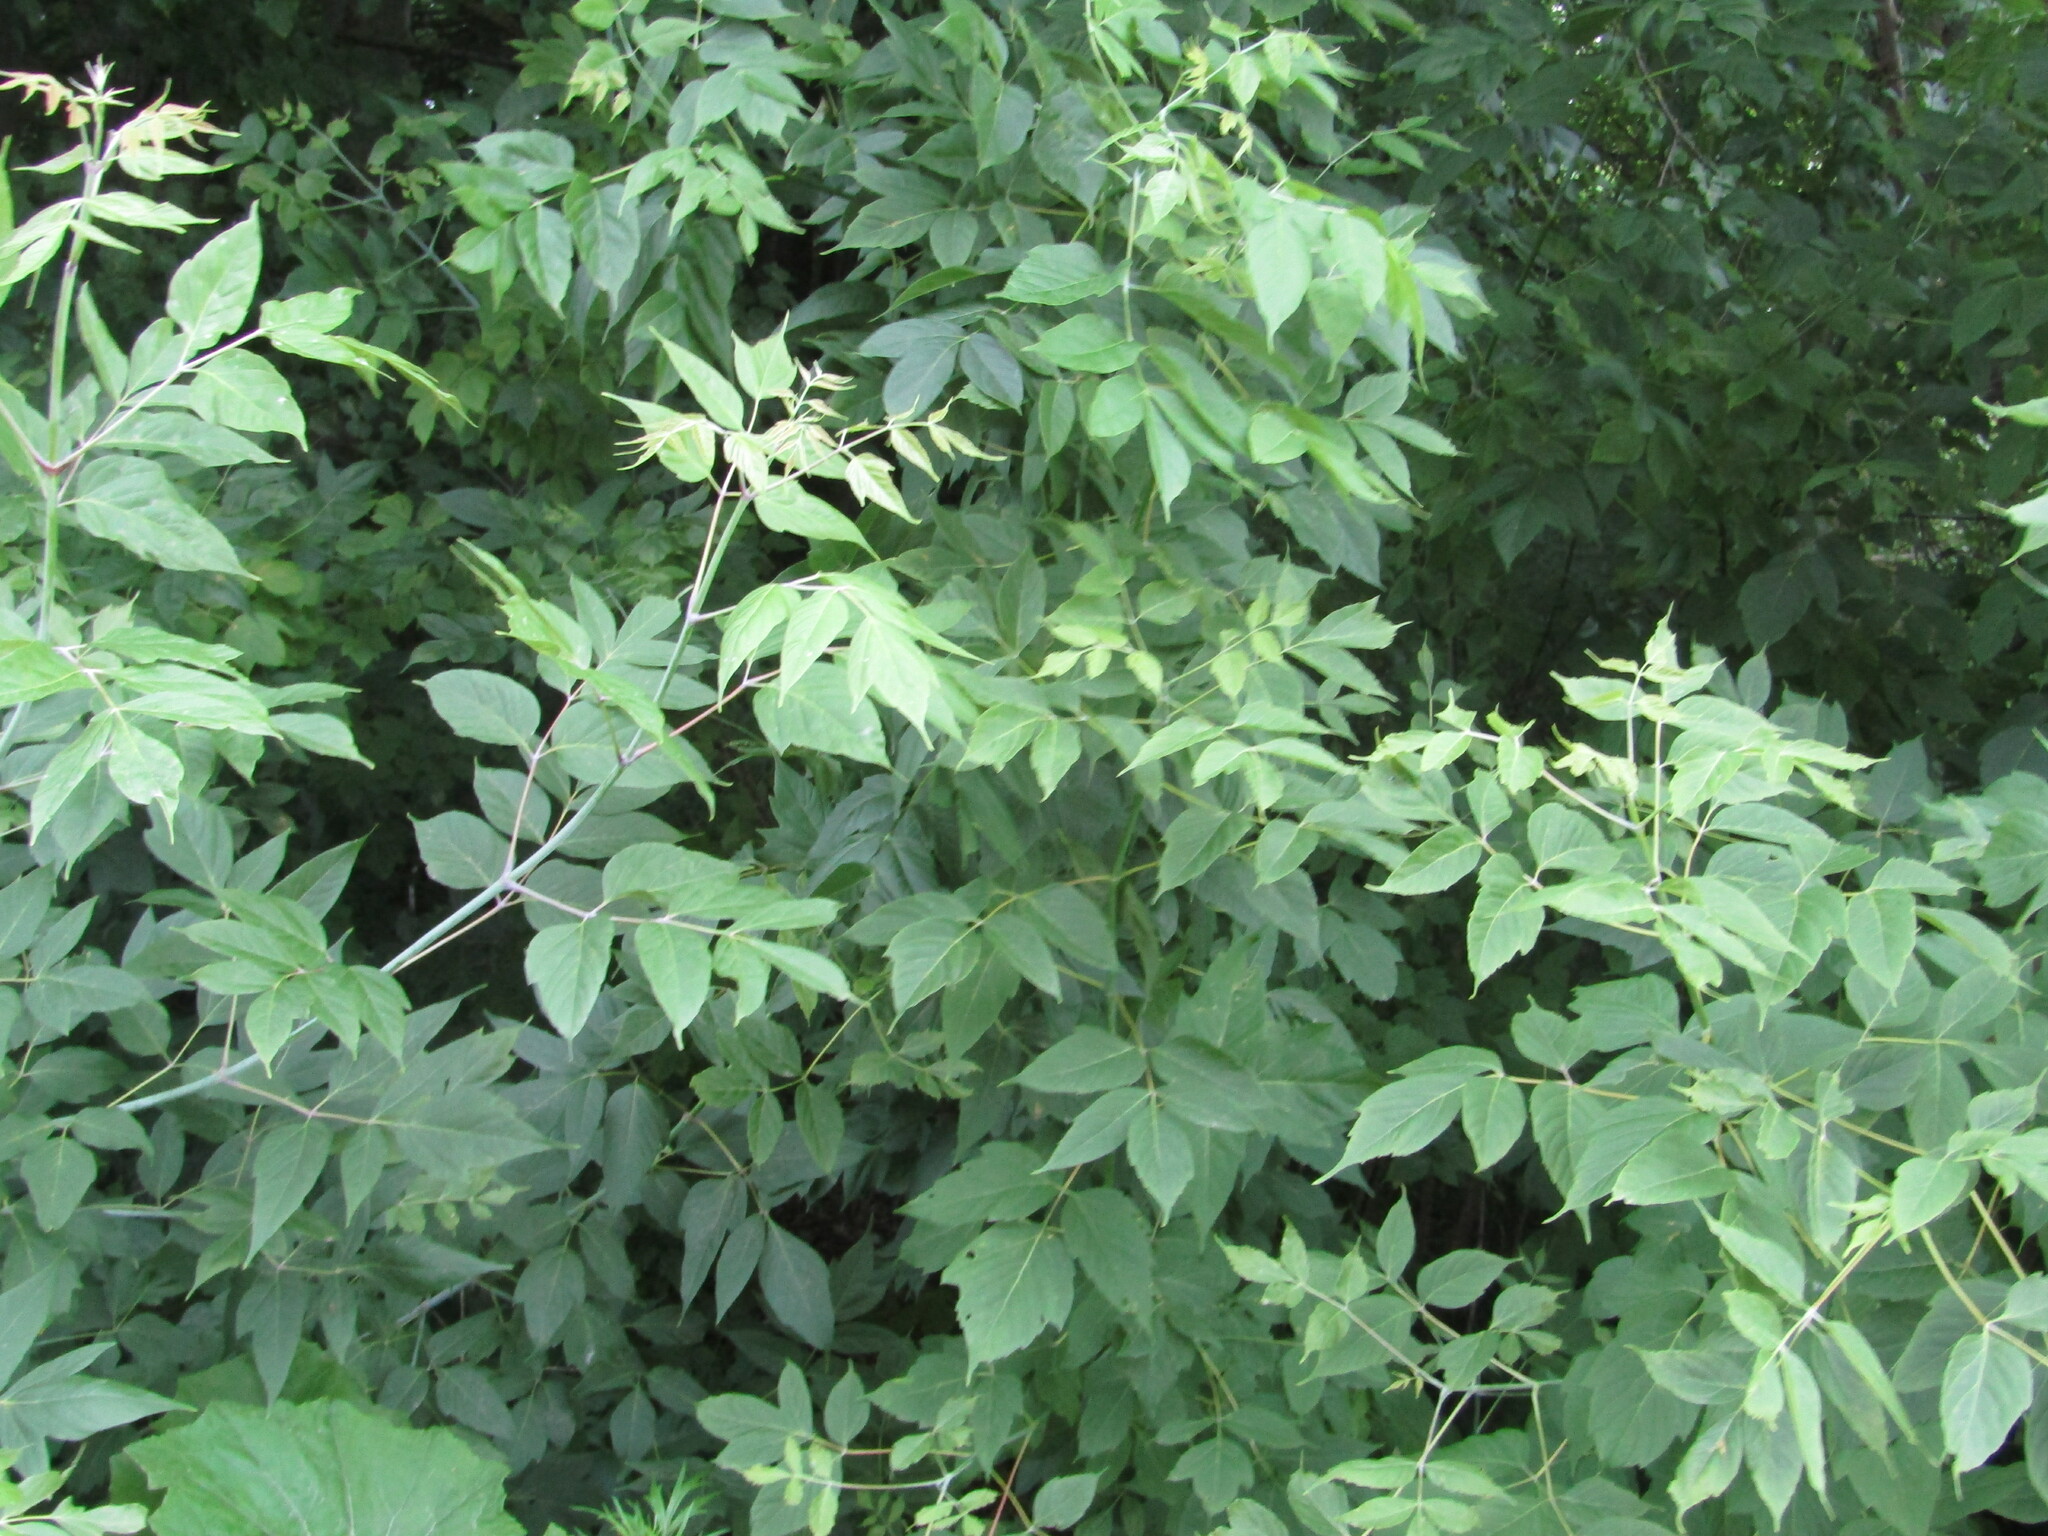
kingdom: Plantae
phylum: Tracheophyta
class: Magnoliopsida
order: Sapindales
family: Sapindaceae
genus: Acer
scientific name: Acer negundo
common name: Ashleaf maple
